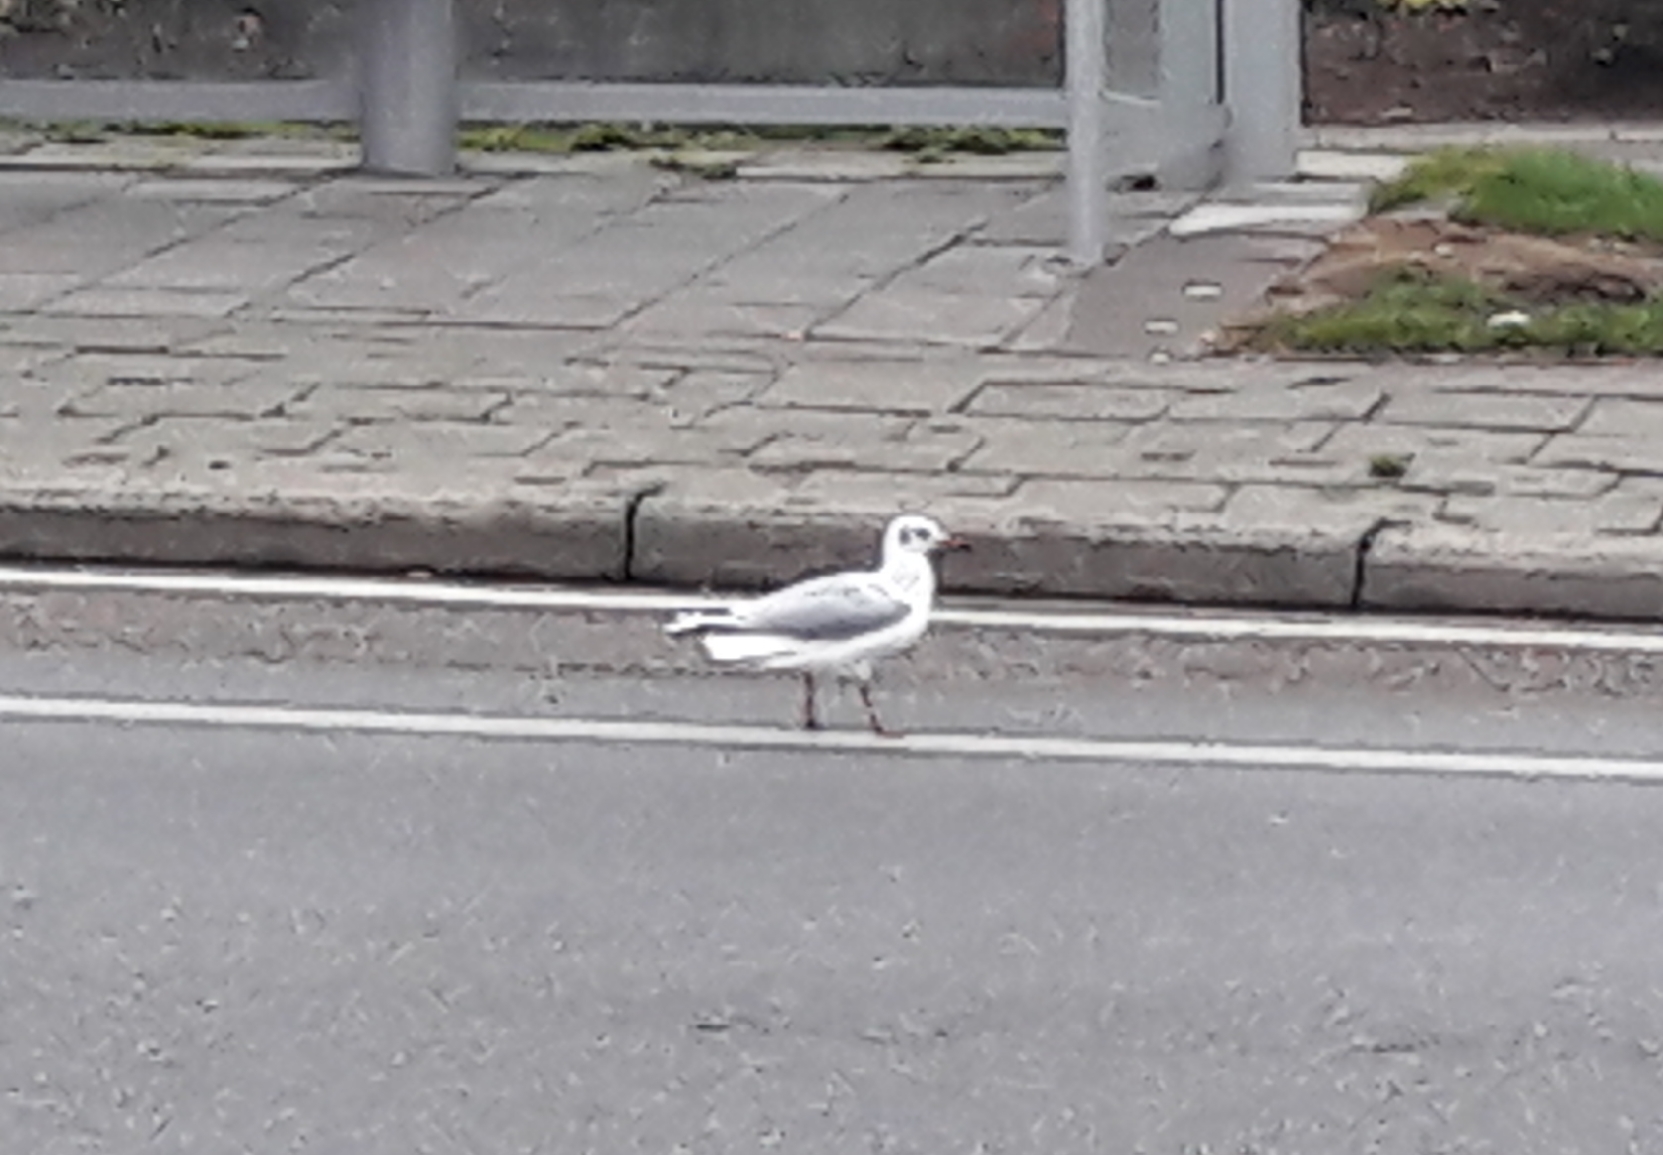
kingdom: Animalia
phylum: Chordata
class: Aves
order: Charadriiformes
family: Laridae
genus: Chroicocephalus
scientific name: Chroicocephalus ridibundus
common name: Black-headed gull
